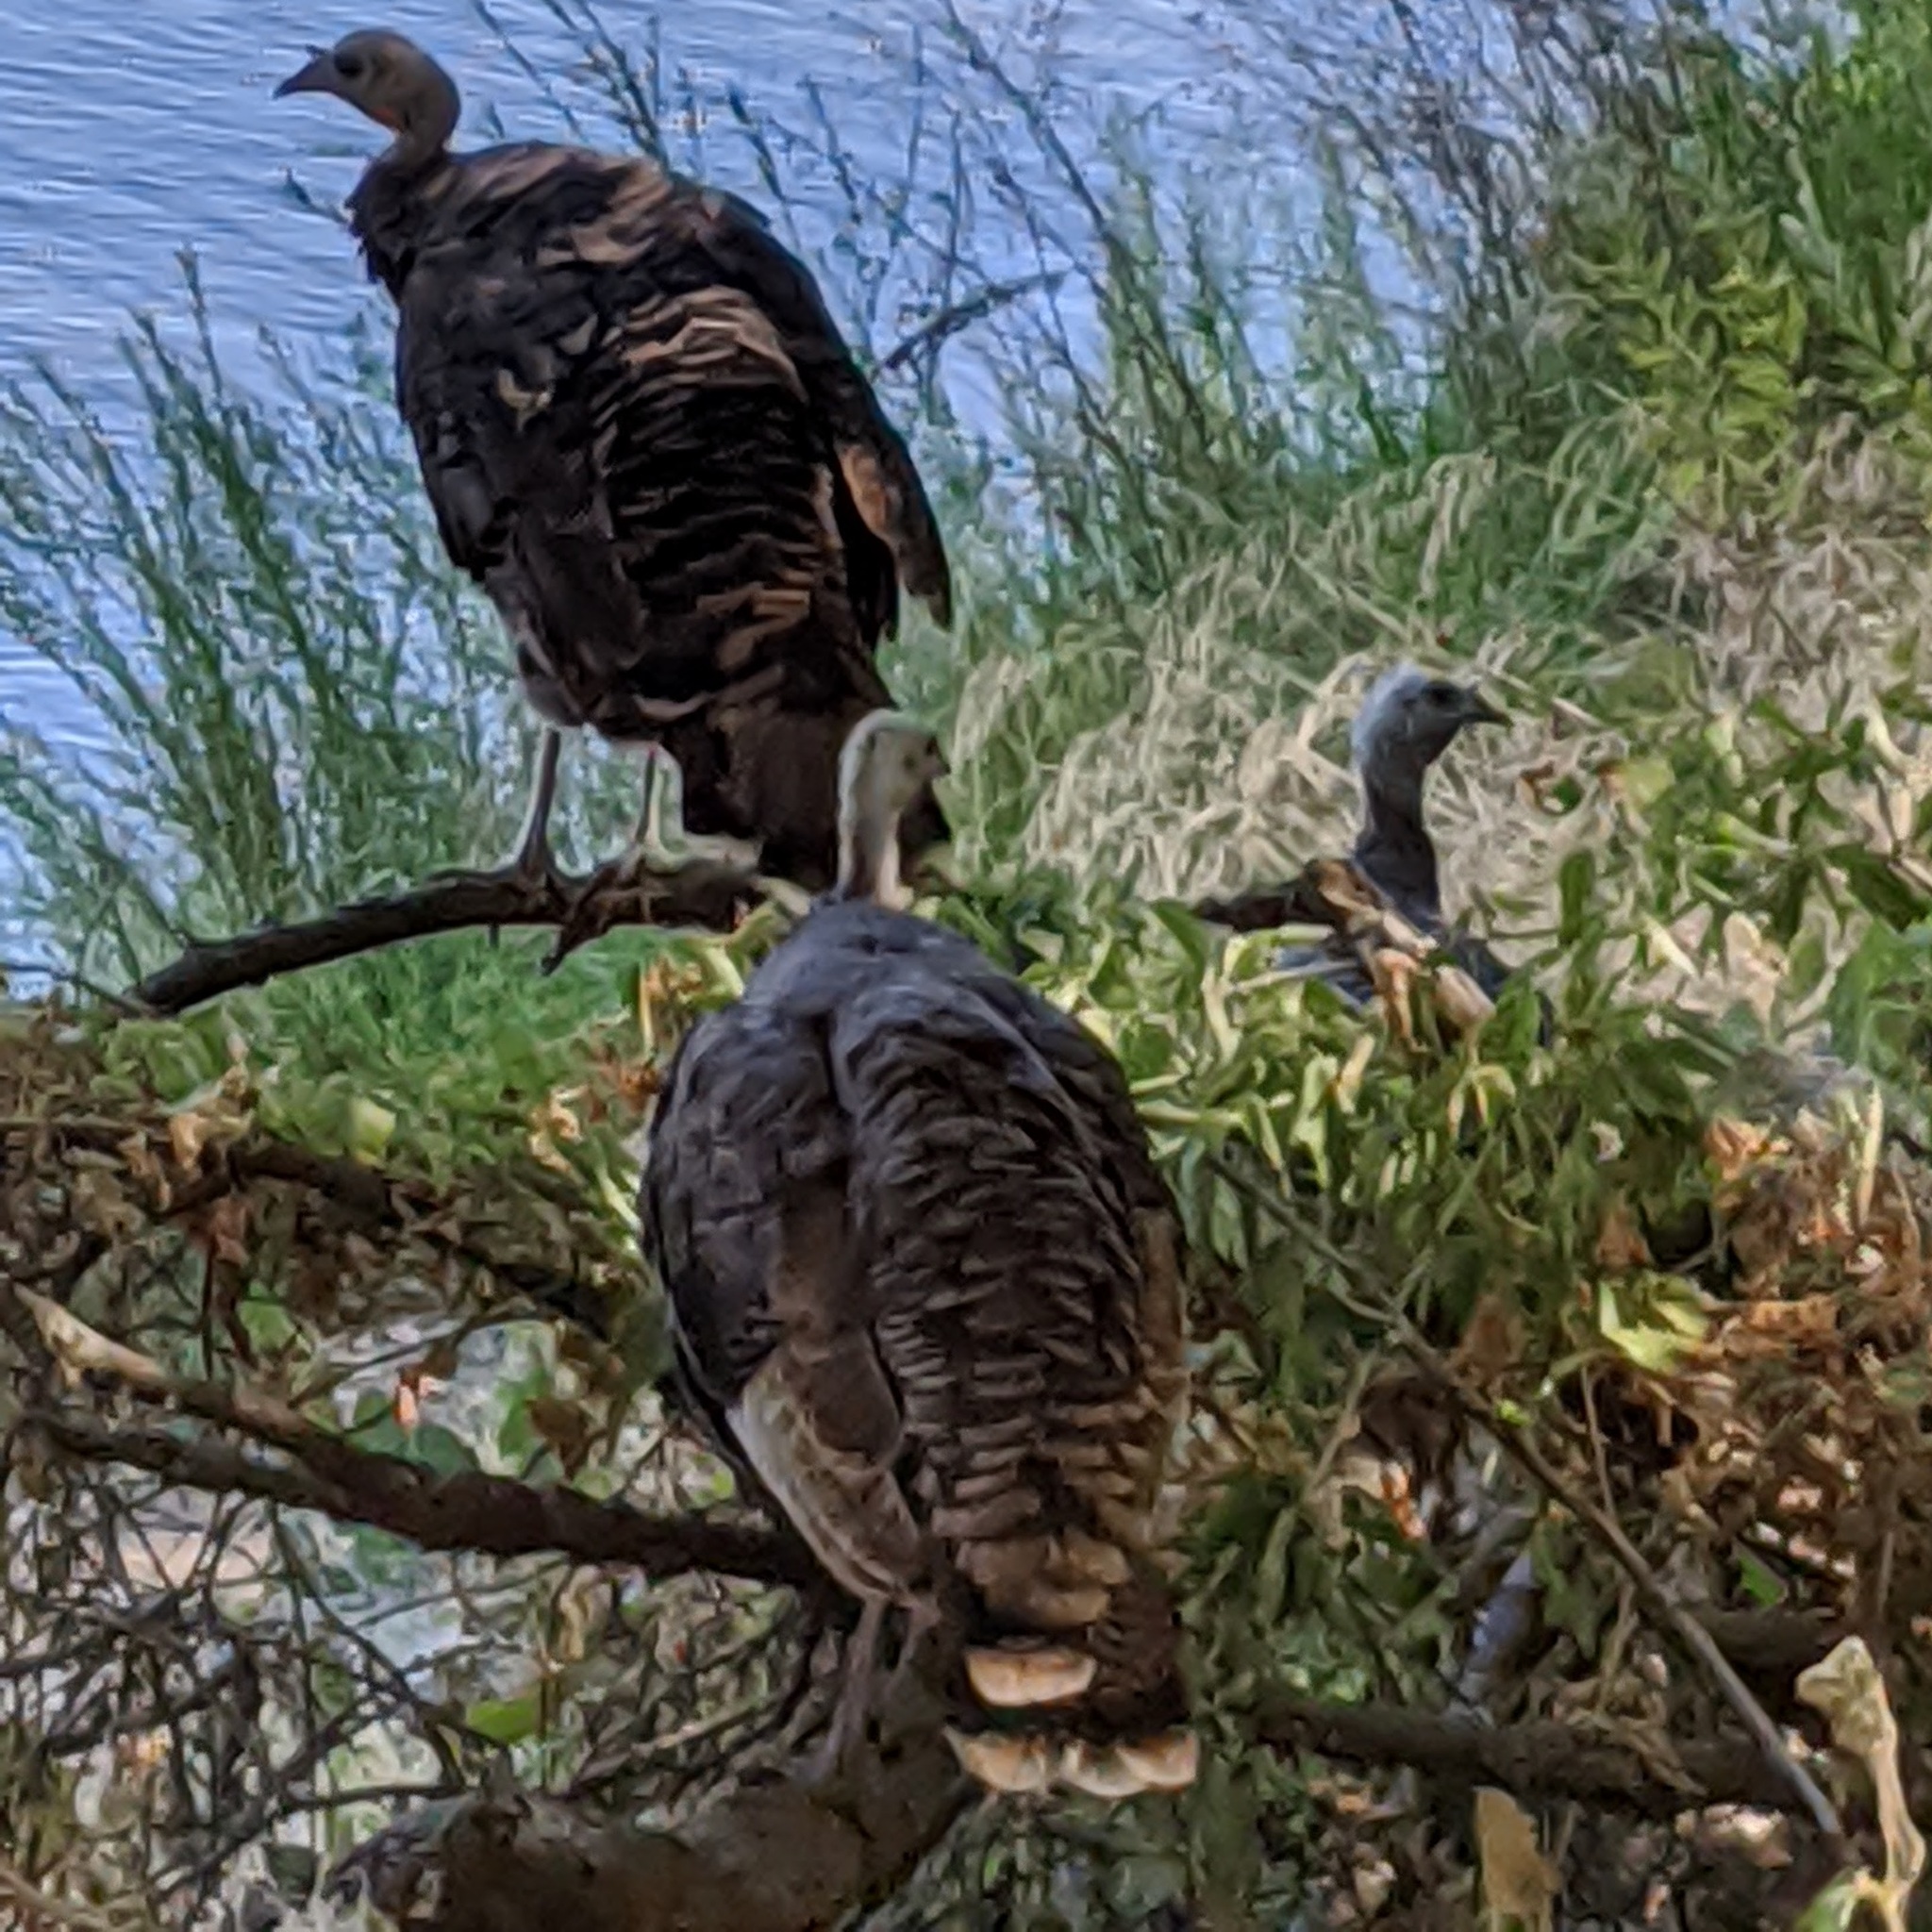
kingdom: Animalia
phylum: Chordata
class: Aves
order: Galliformes
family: Phasianidae
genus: Meleagris
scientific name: Meleagris gallopavo
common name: Wild turkey
